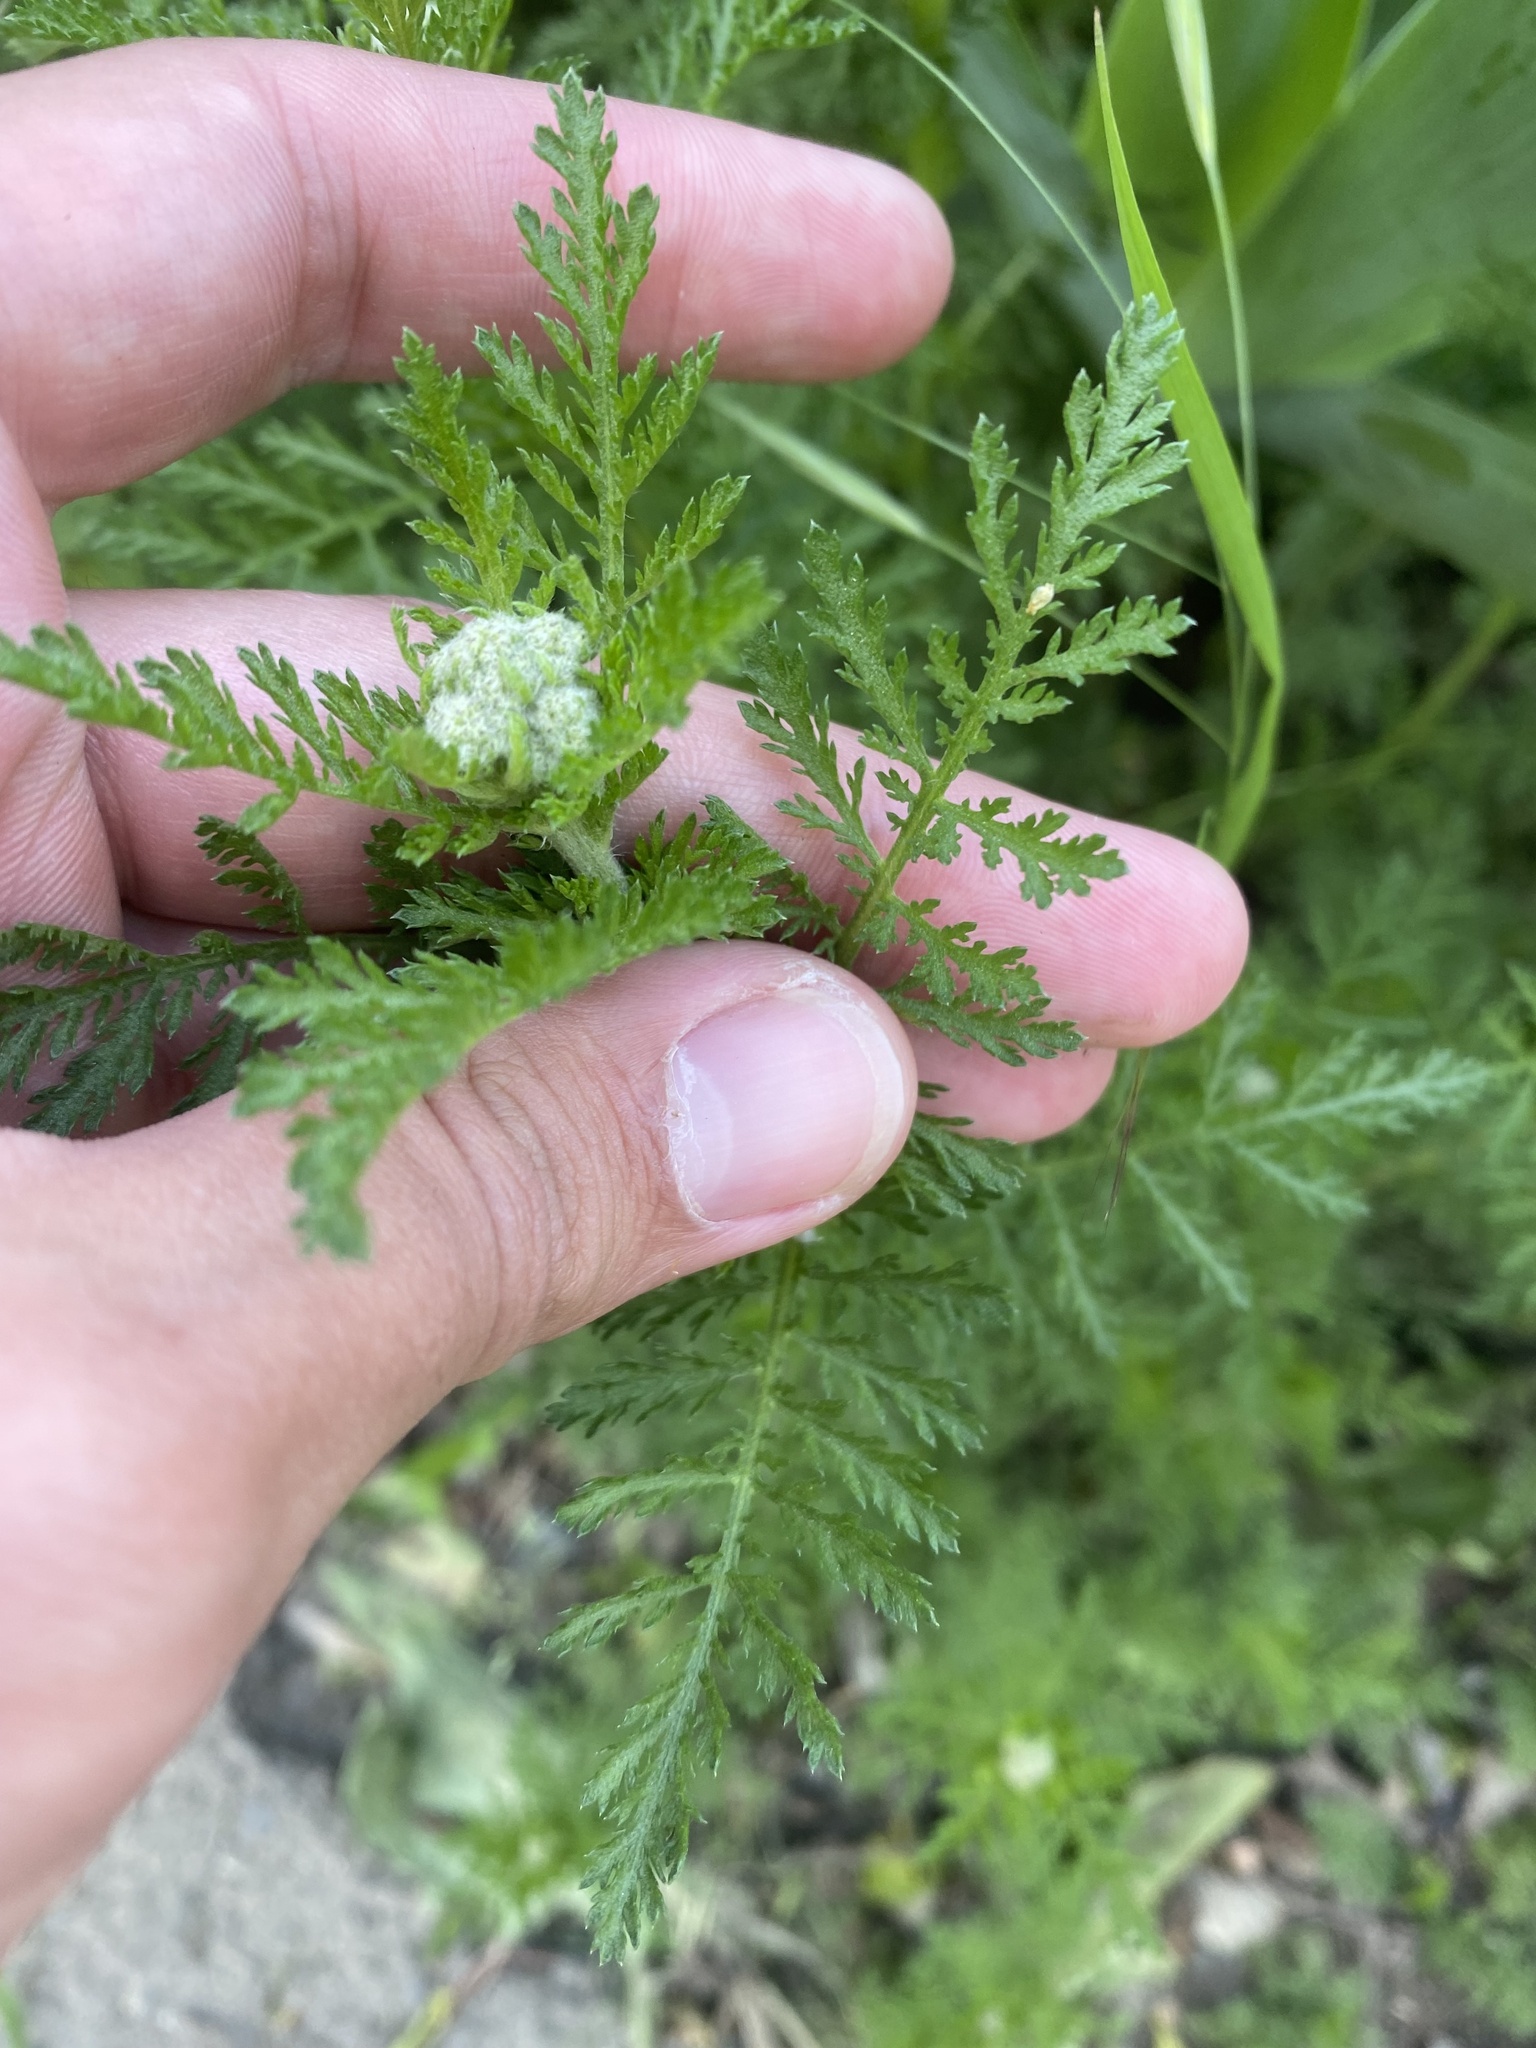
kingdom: Plantae
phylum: Tracheophyta
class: Magnoliopsida
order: Asterales
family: Asteraceae
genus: Achillea
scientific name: Achillea nobilis
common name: Noble yarrow
